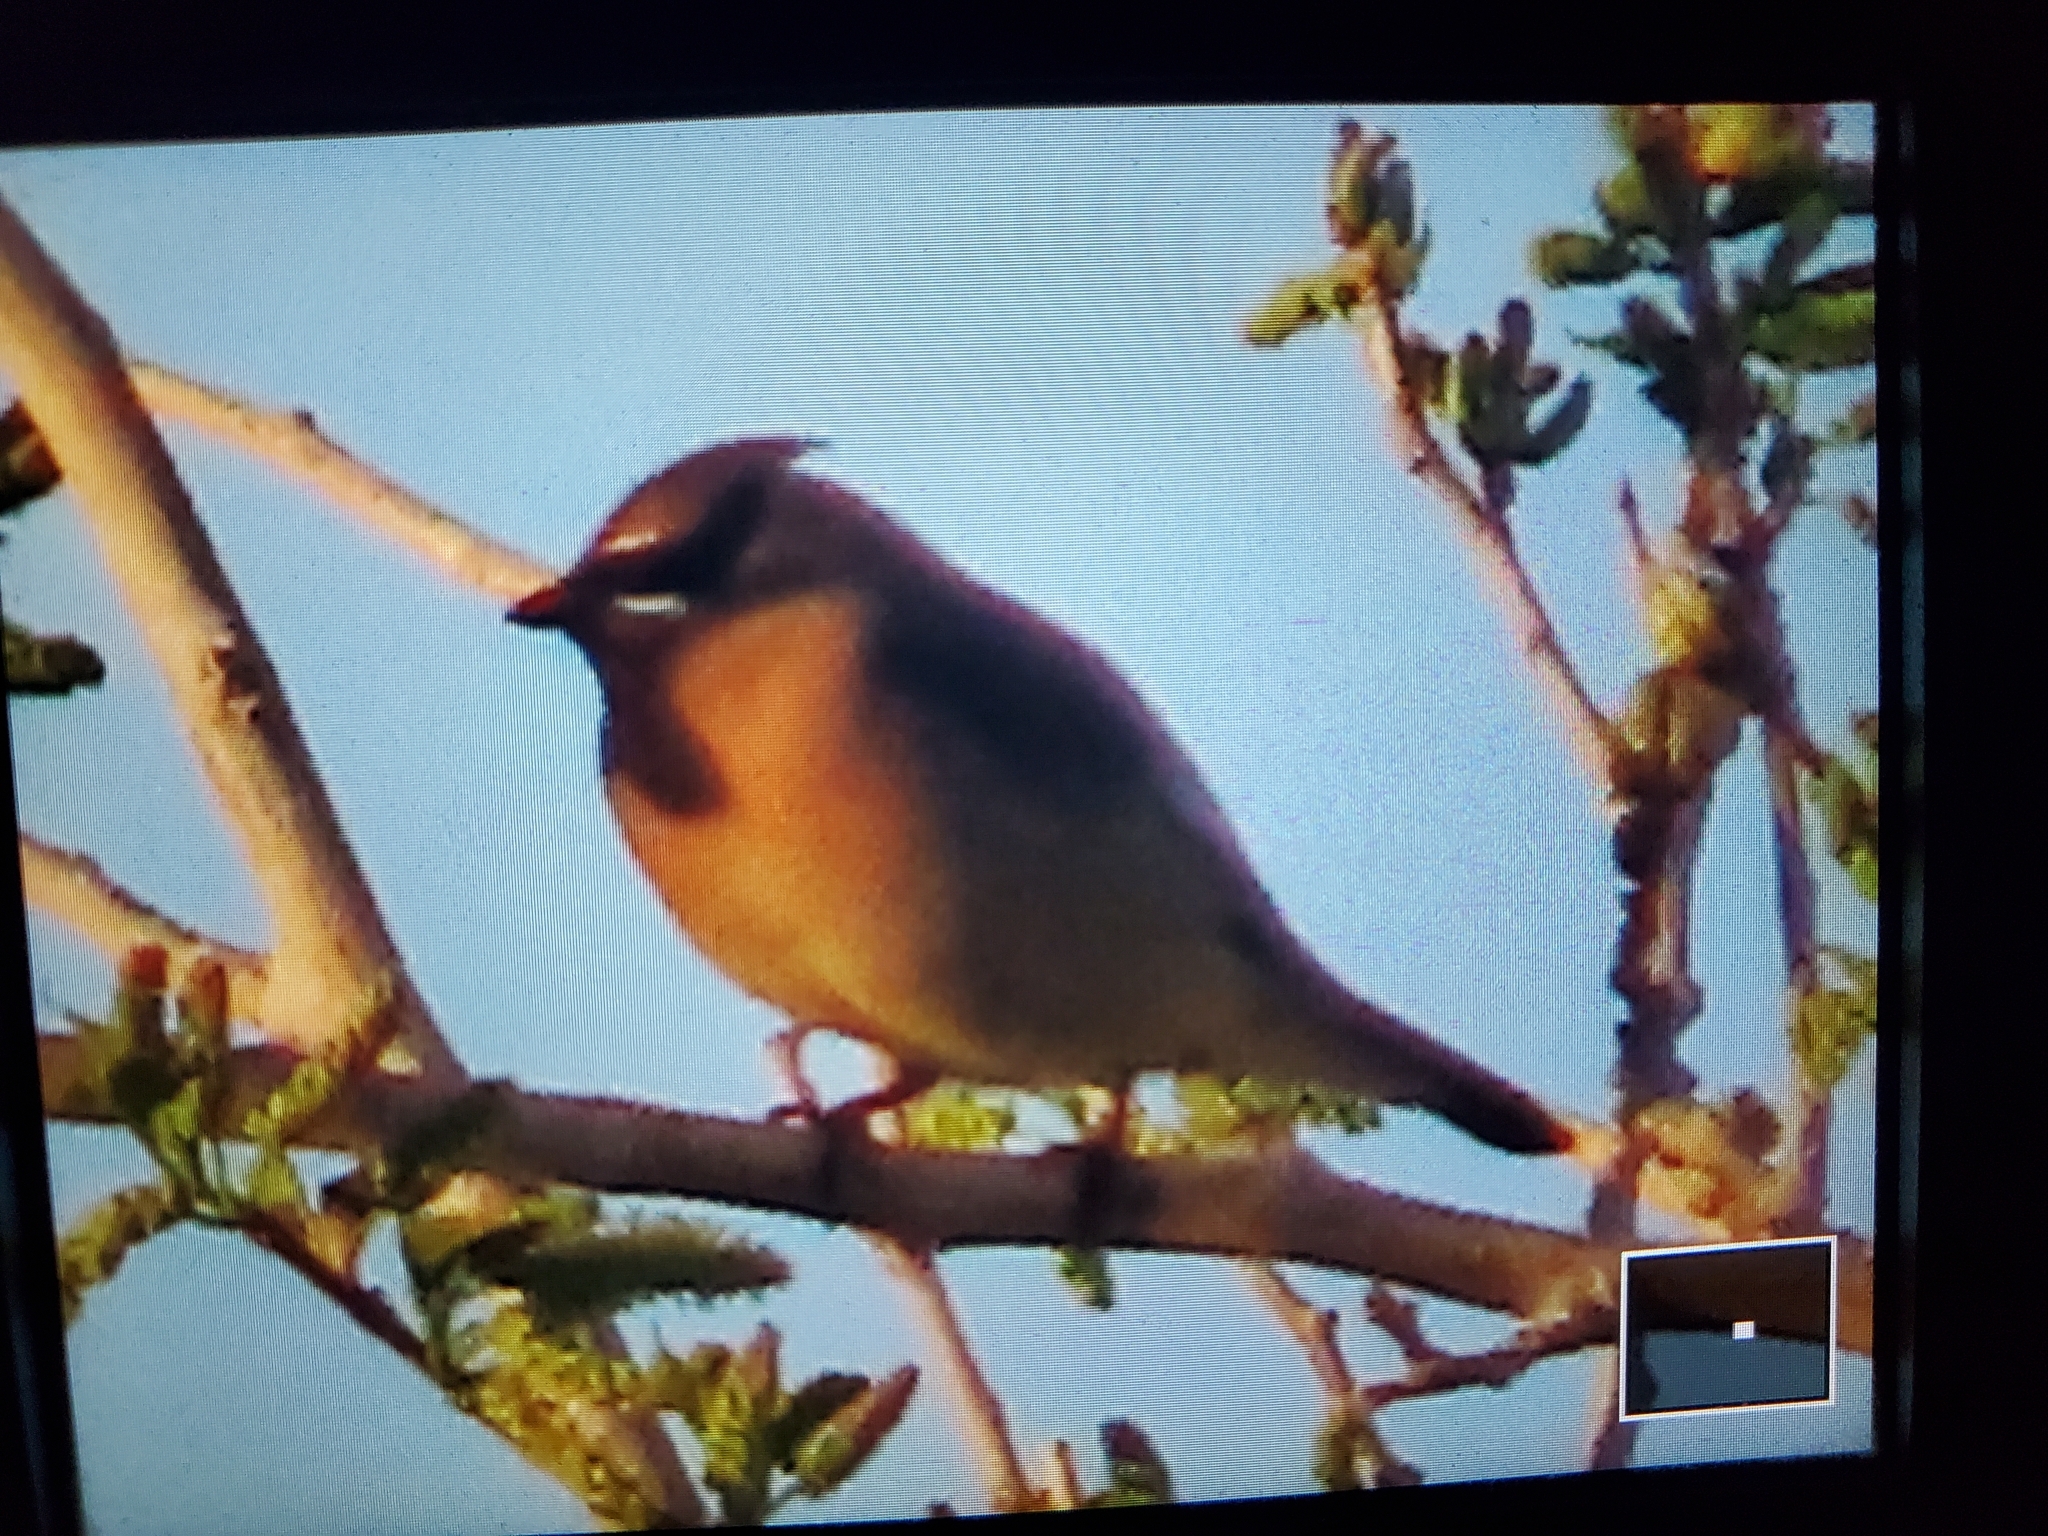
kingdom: Animalia
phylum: Chordata
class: Aves
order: Passeriformes
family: Bombycillidae
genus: Bombycilla
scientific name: Bombycilla cedrorum
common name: Cedar waxwing
